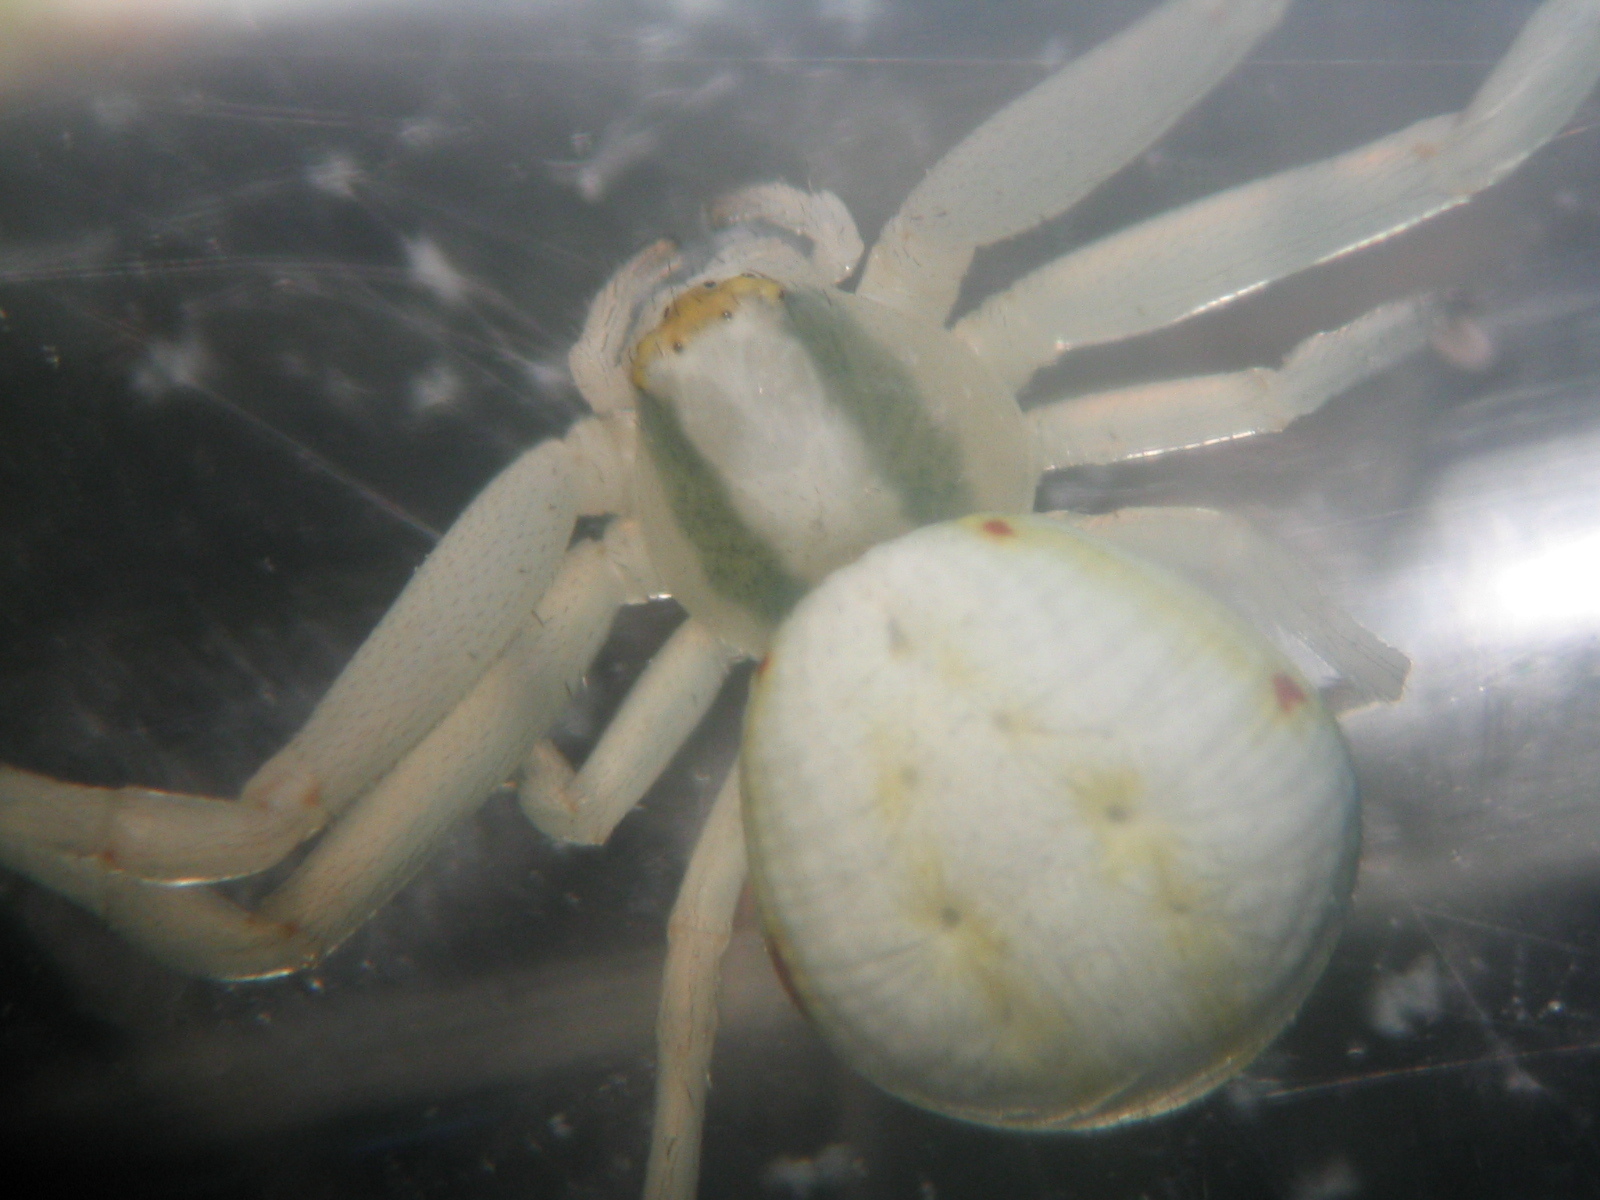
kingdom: Animalia
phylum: Arthropoda
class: Arachnida
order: Araneae
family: Thomisidae
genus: Misumena
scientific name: Misumena vatia
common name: Goldenrod crab spider
